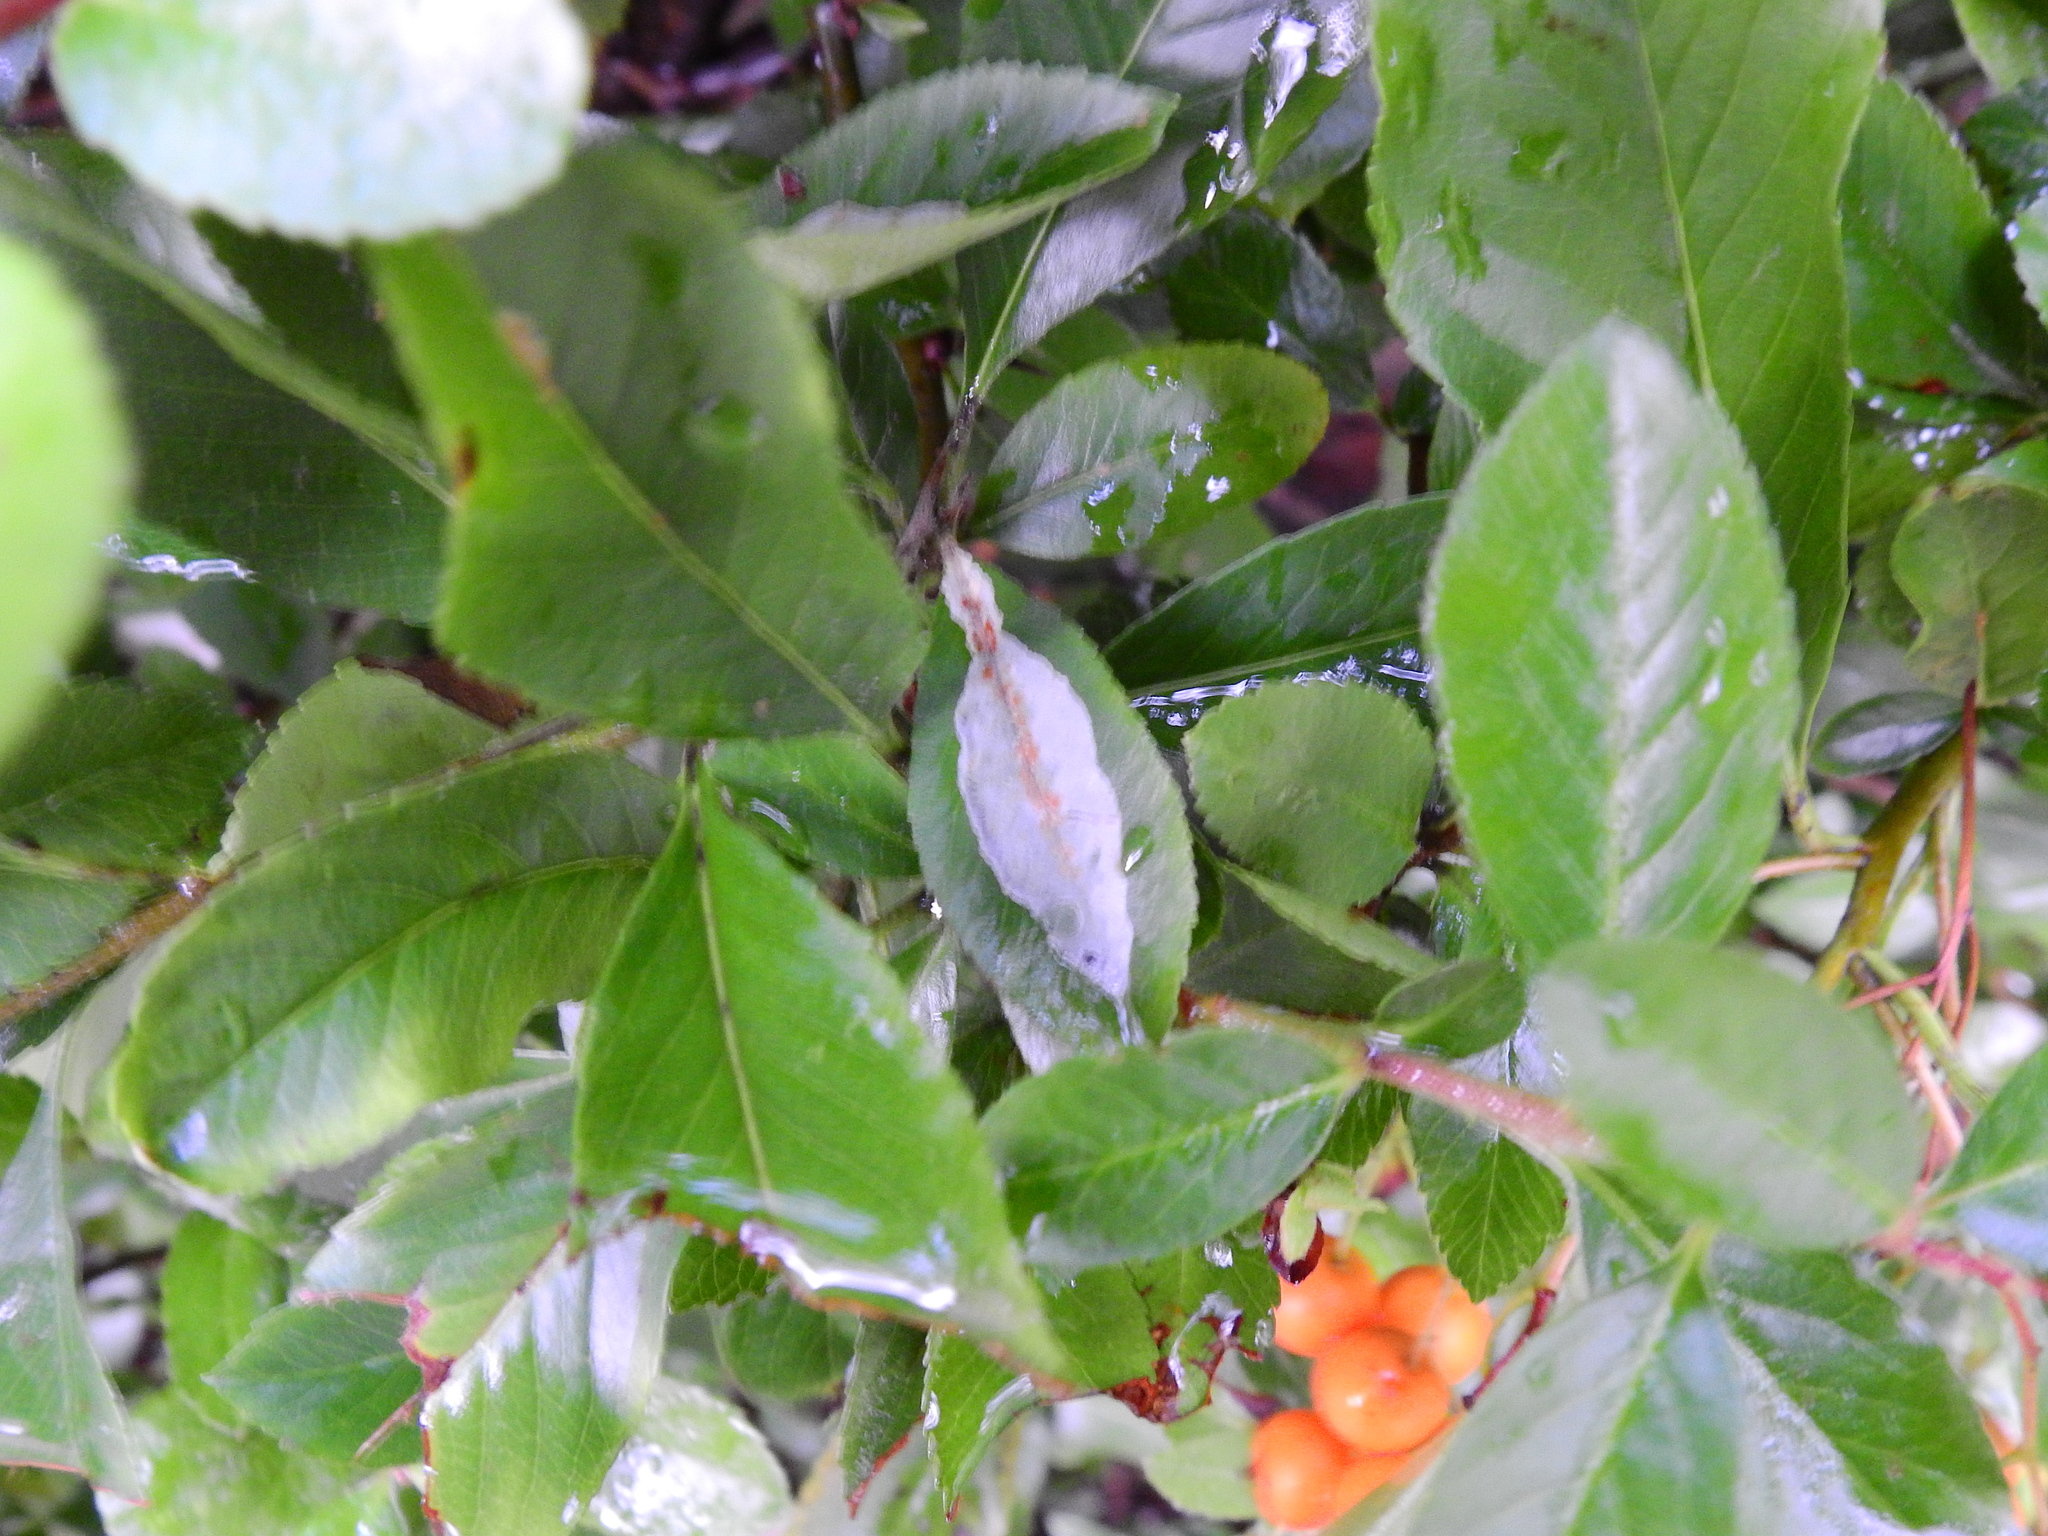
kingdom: Animalia
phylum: Arthropoda
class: Insecta
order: Lepidoptera
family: Gracillariidae
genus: Phyllonorycter
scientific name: Phyllonorycter leucographella
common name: Firethorn leaf-miner
